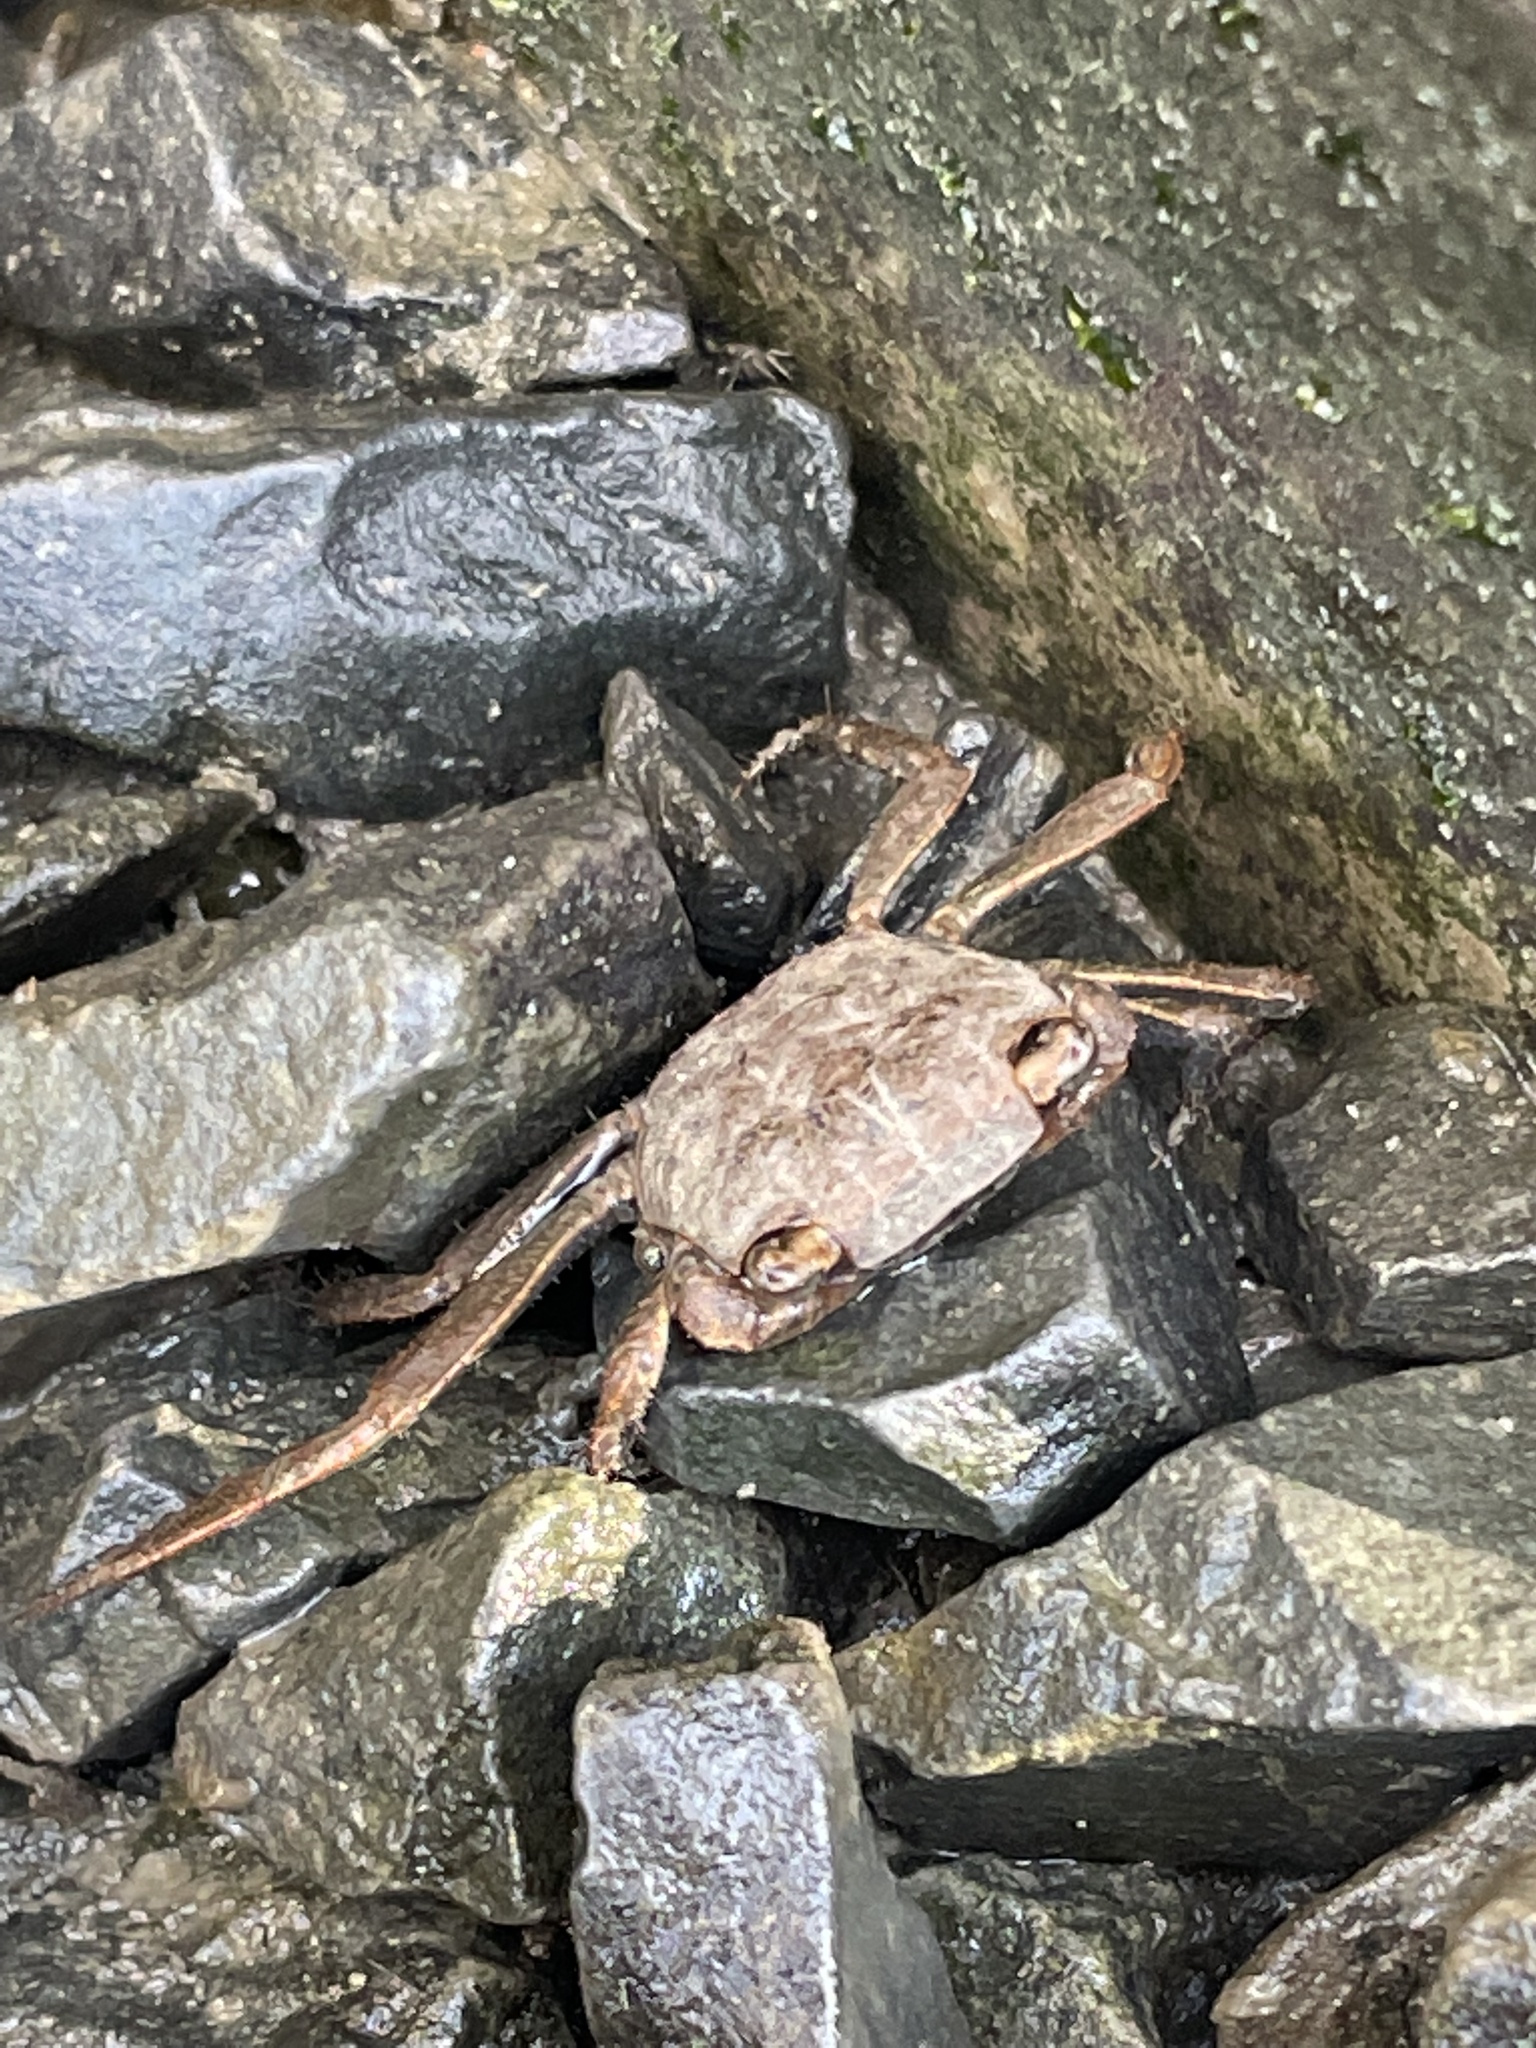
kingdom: Animalia
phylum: Arthropoda
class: Malacostraca
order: Decapoda
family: Sesarmidae
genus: Armases
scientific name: Armases cinereum
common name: Squareback marsh crab
